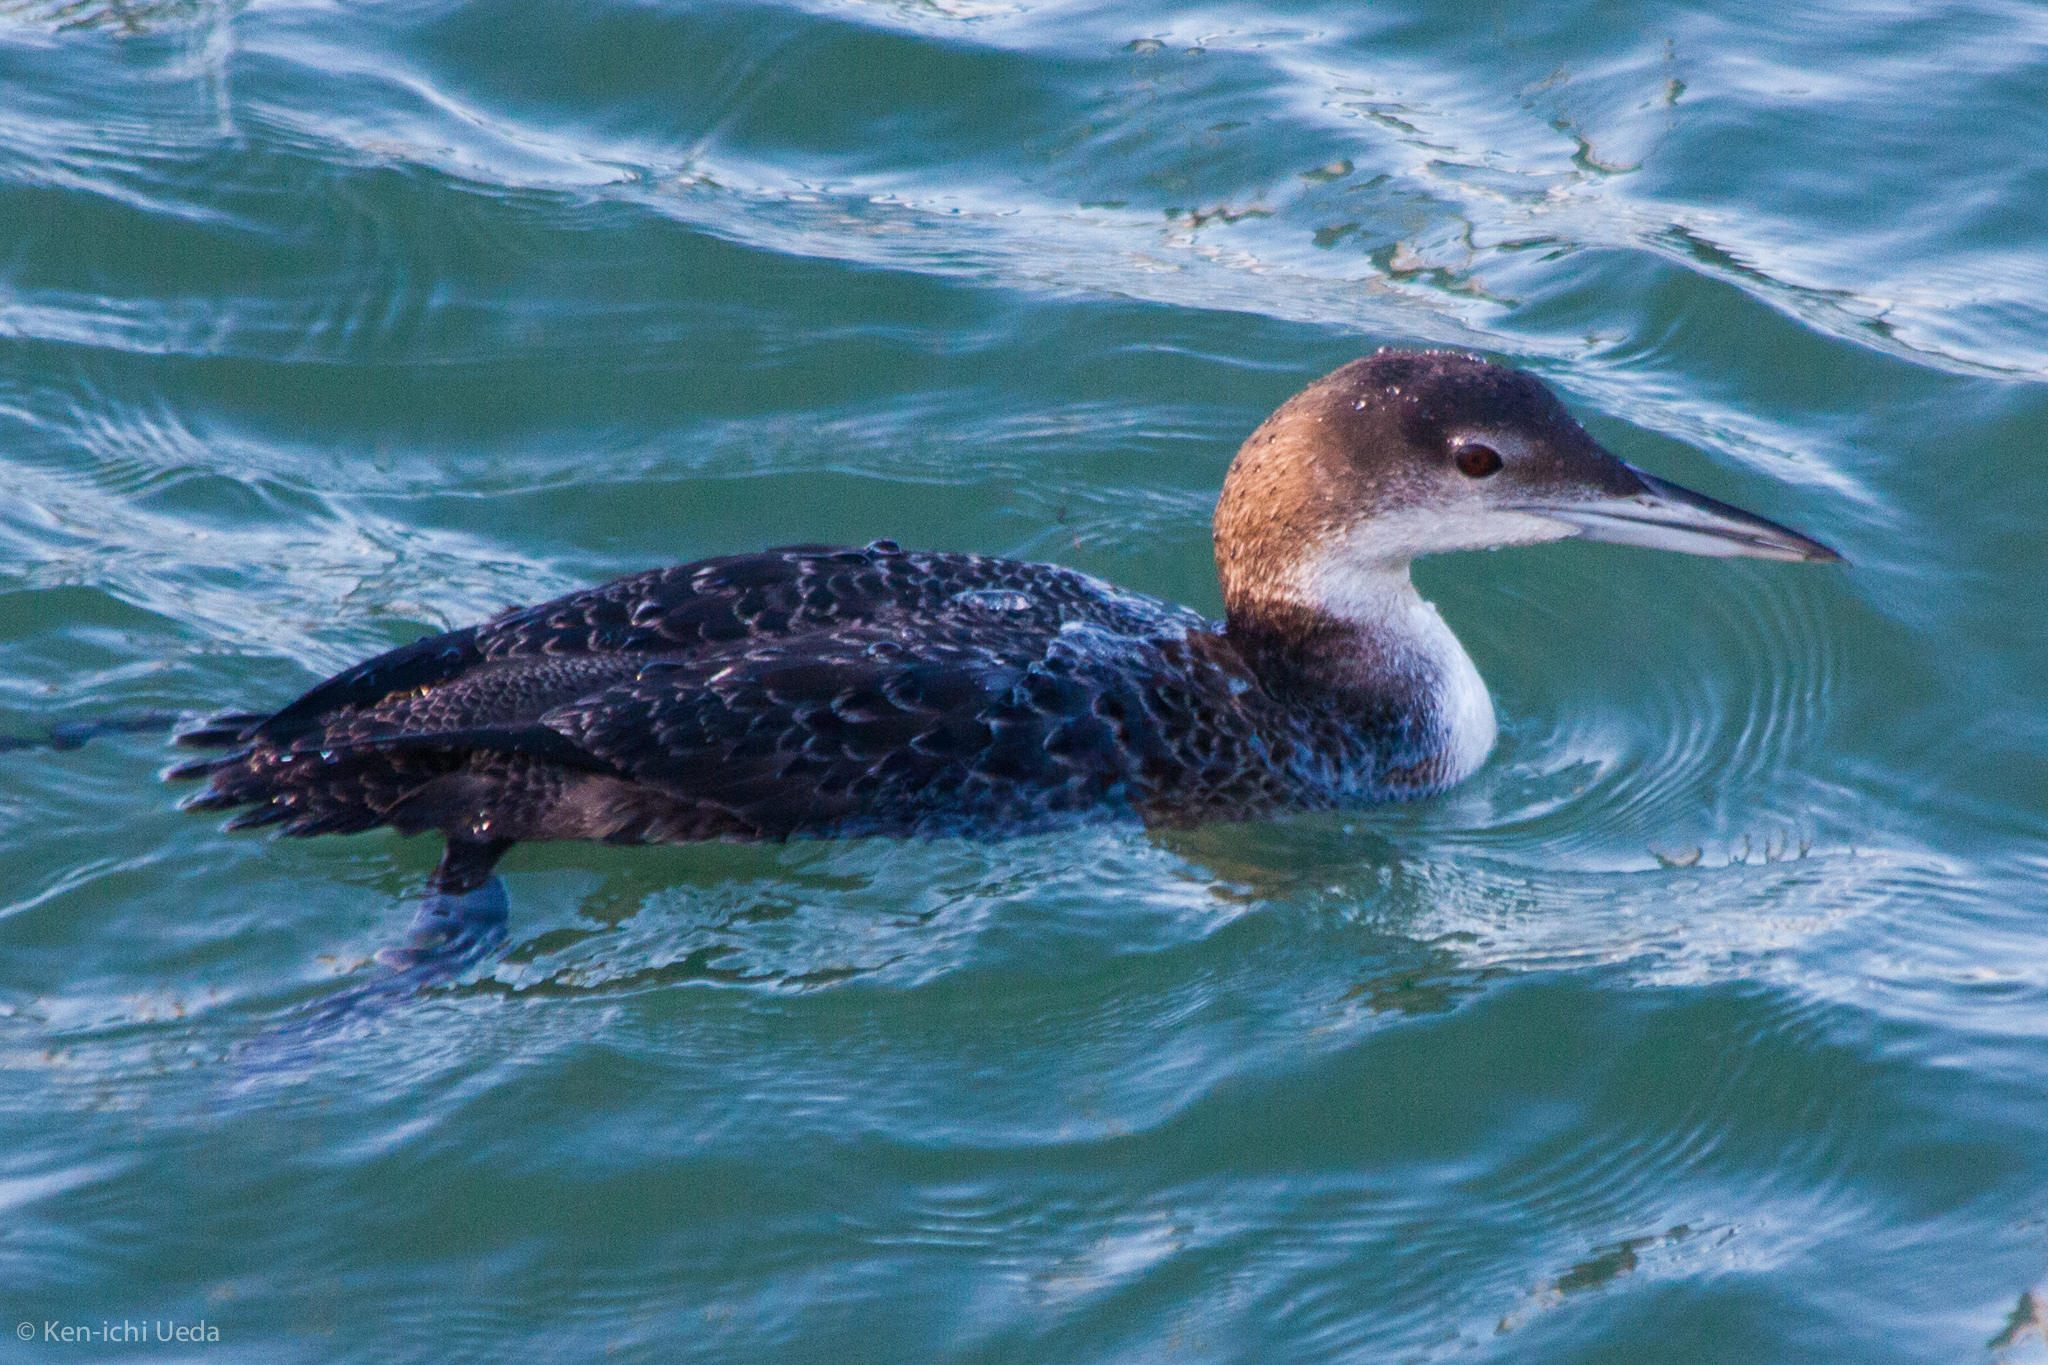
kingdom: Animalia
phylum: Chordata
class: Aves
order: Gaviiformes
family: Gaviidae
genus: Gavia
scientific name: Gavia immer
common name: Common loon
